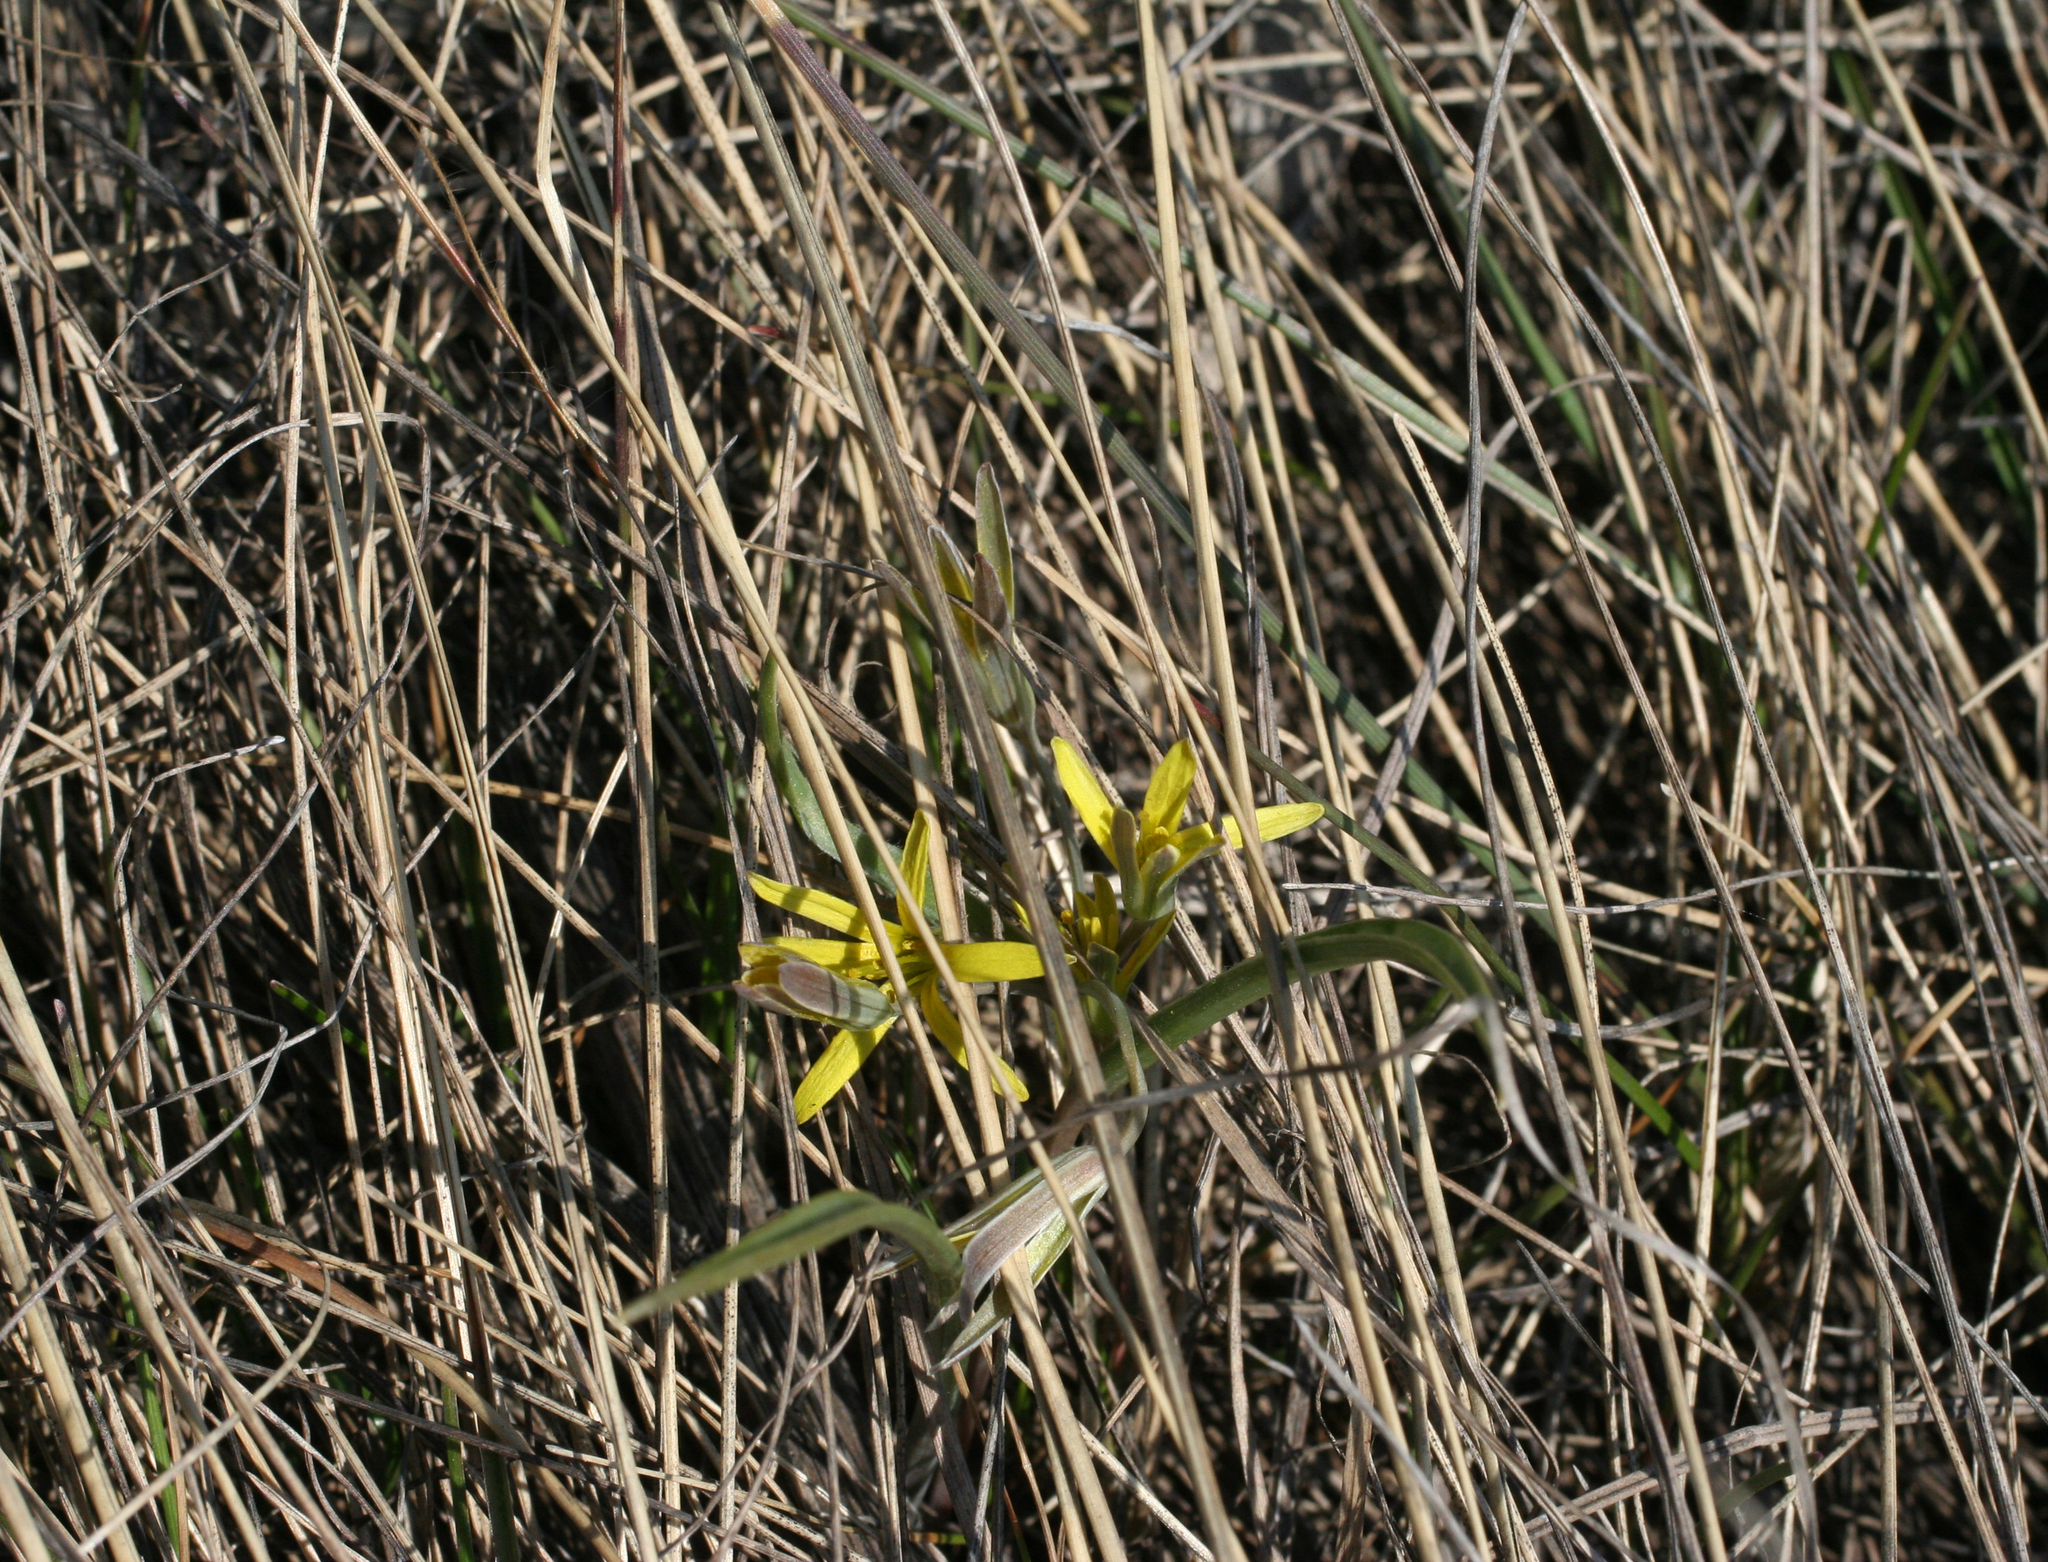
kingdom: Plantae
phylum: Tracheophyta
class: Liliopsida
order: Liliales
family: Liliaceae
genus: Gagea
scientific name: Gagea fedtschenkoana
